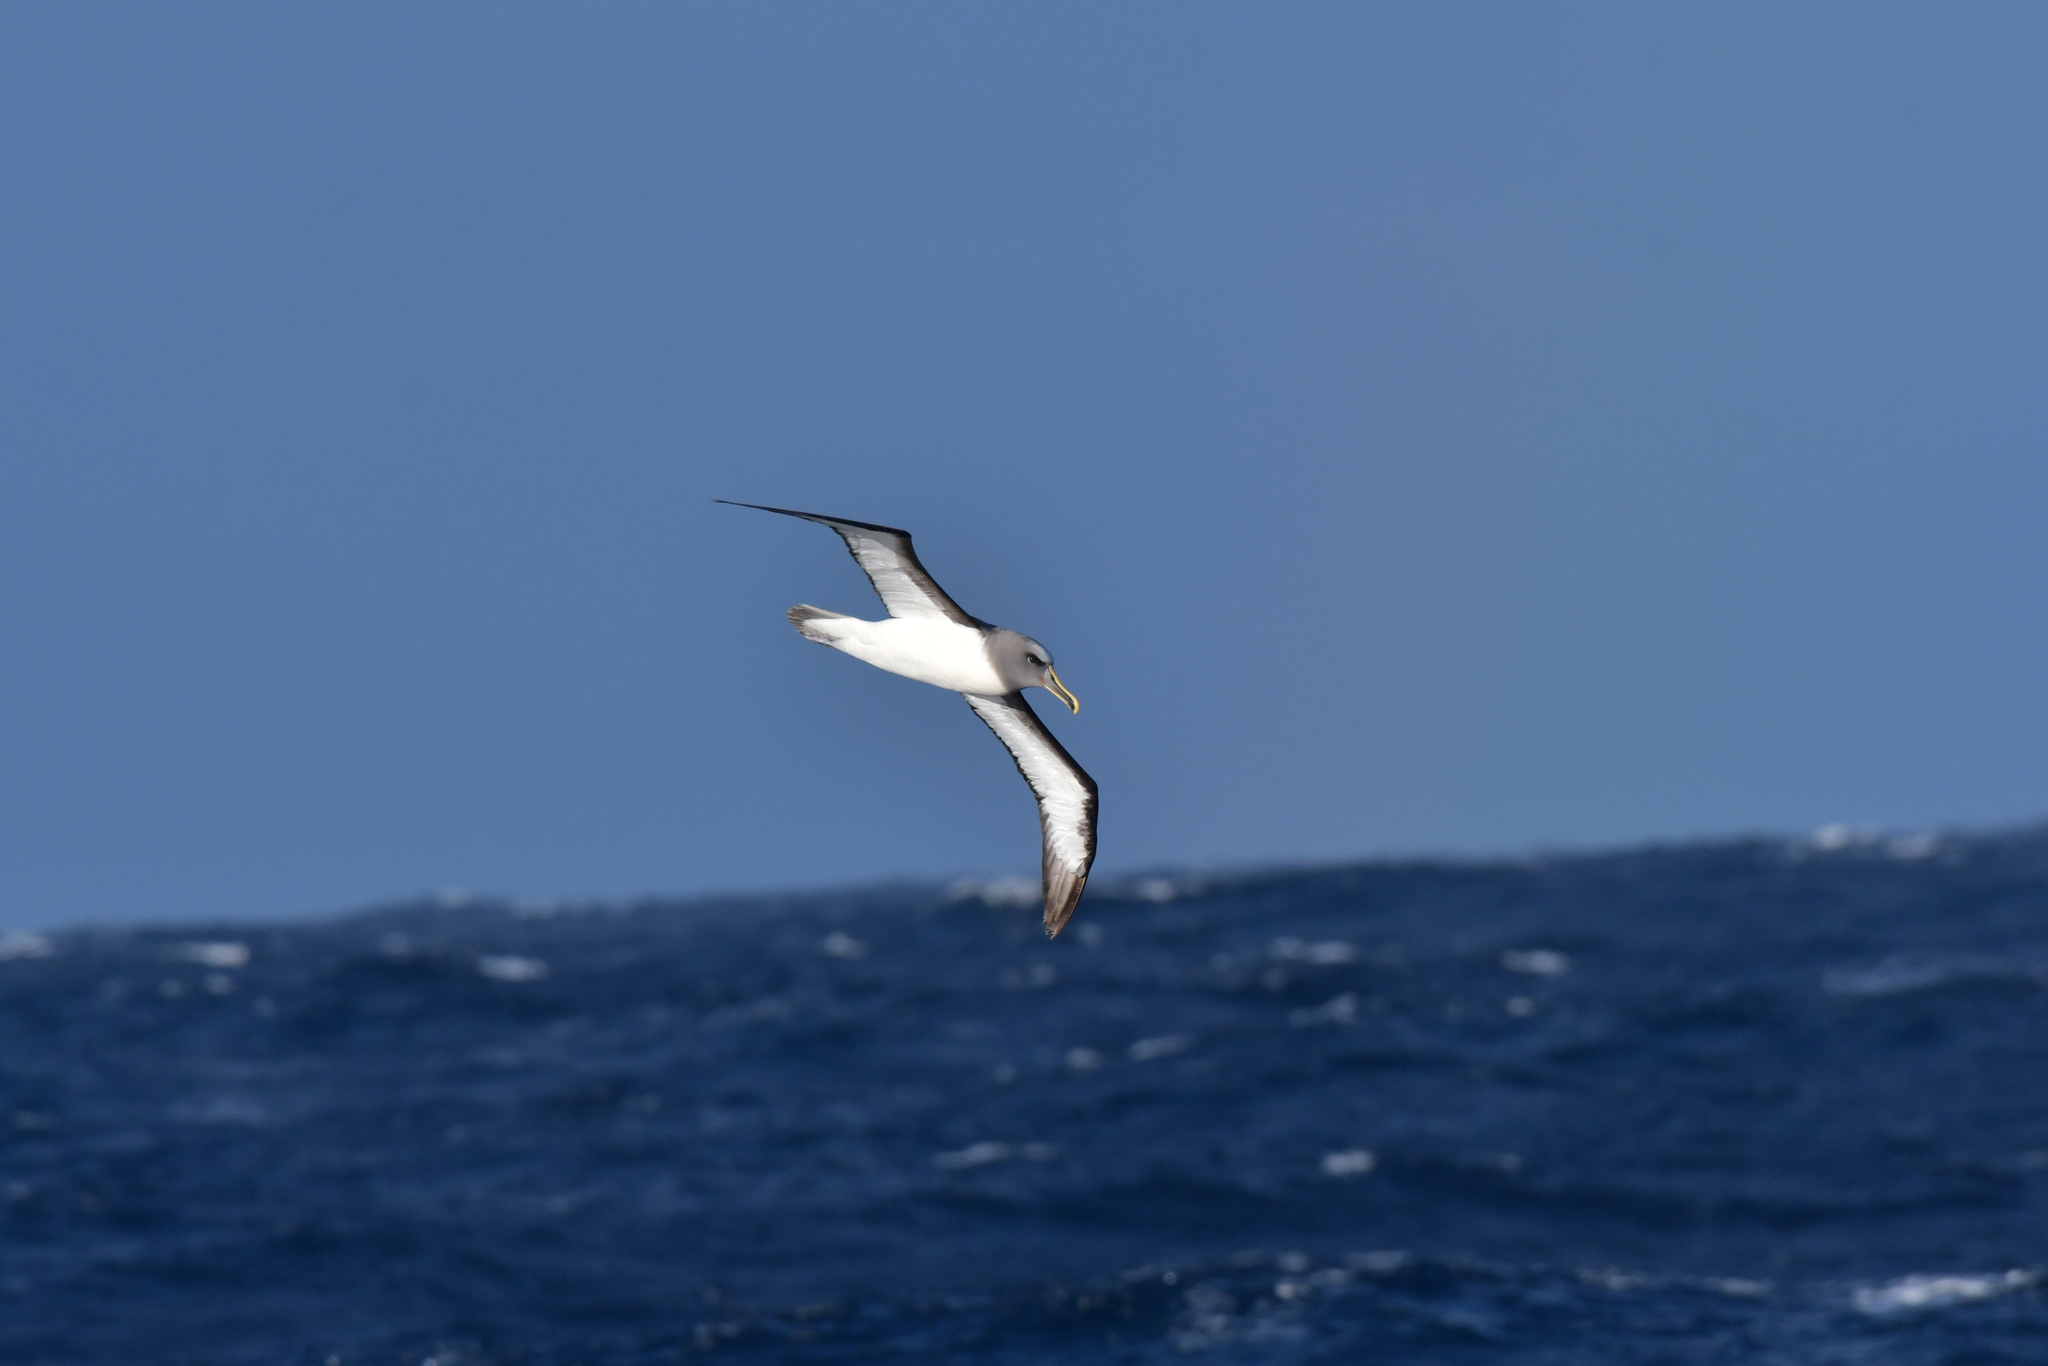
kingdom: Animalia
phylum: Chordata
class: Aves
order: Procellariiformes
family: Diomedeidae
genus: Thalassarche
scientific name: Thalassarche bulleri
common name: Buller's albatross
